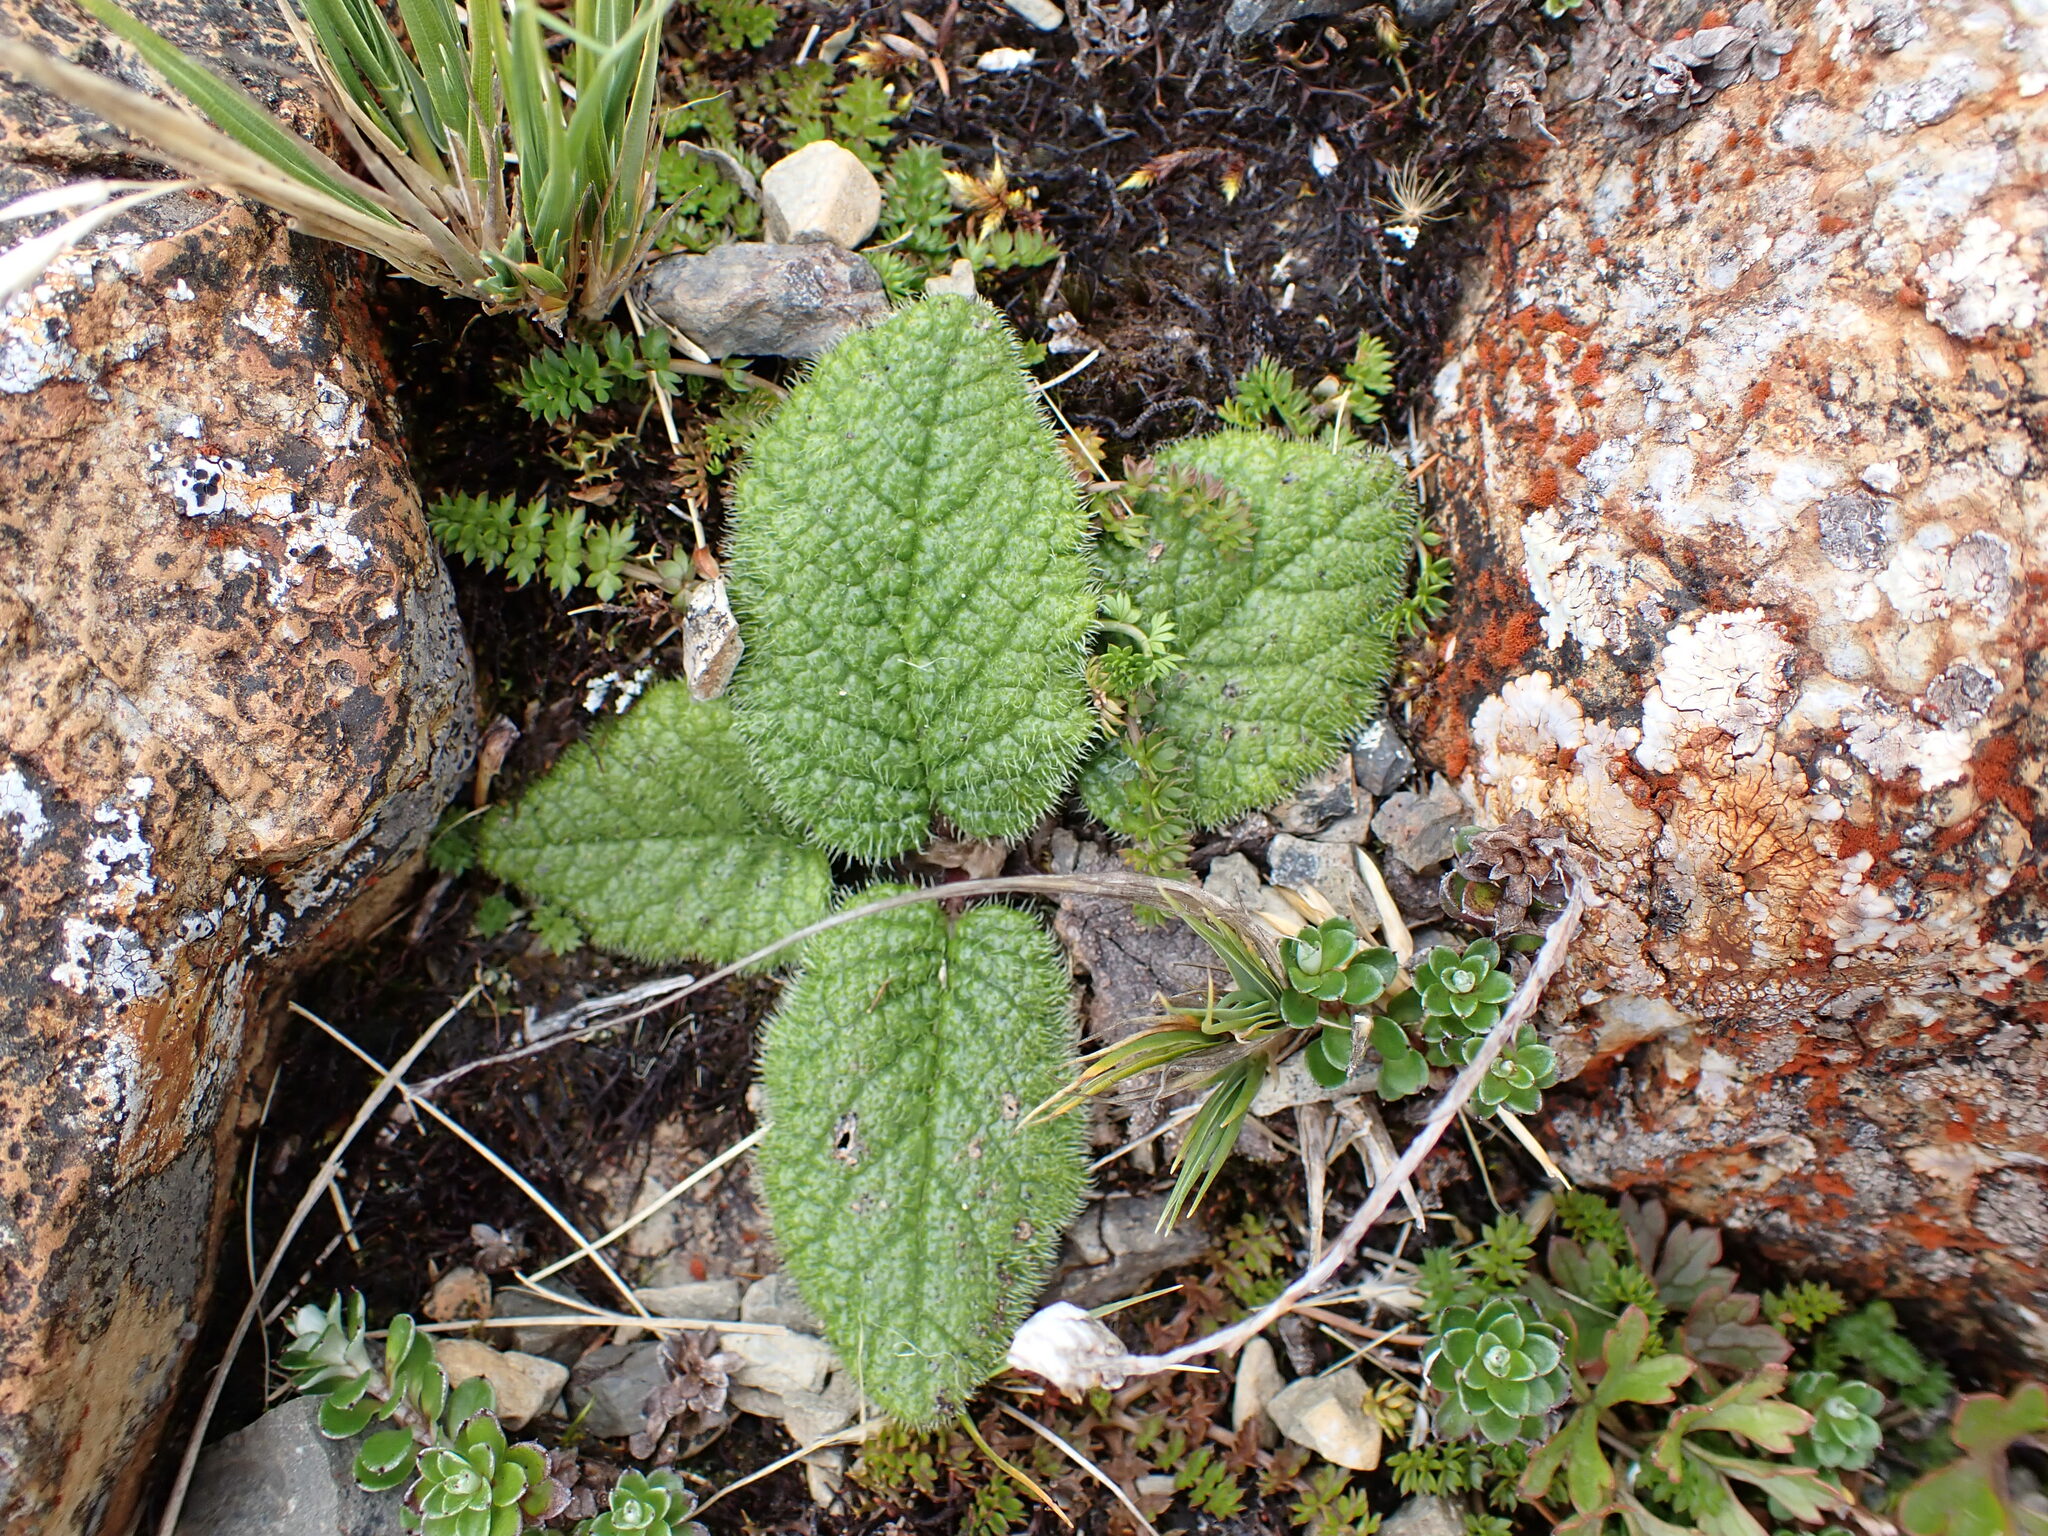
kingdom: Plantae
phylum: Tracheophyta
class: Magnoliopsida
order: Asterales
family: Asteraceae
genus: Brachyglottis
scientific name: Brachyglottis lagopus
